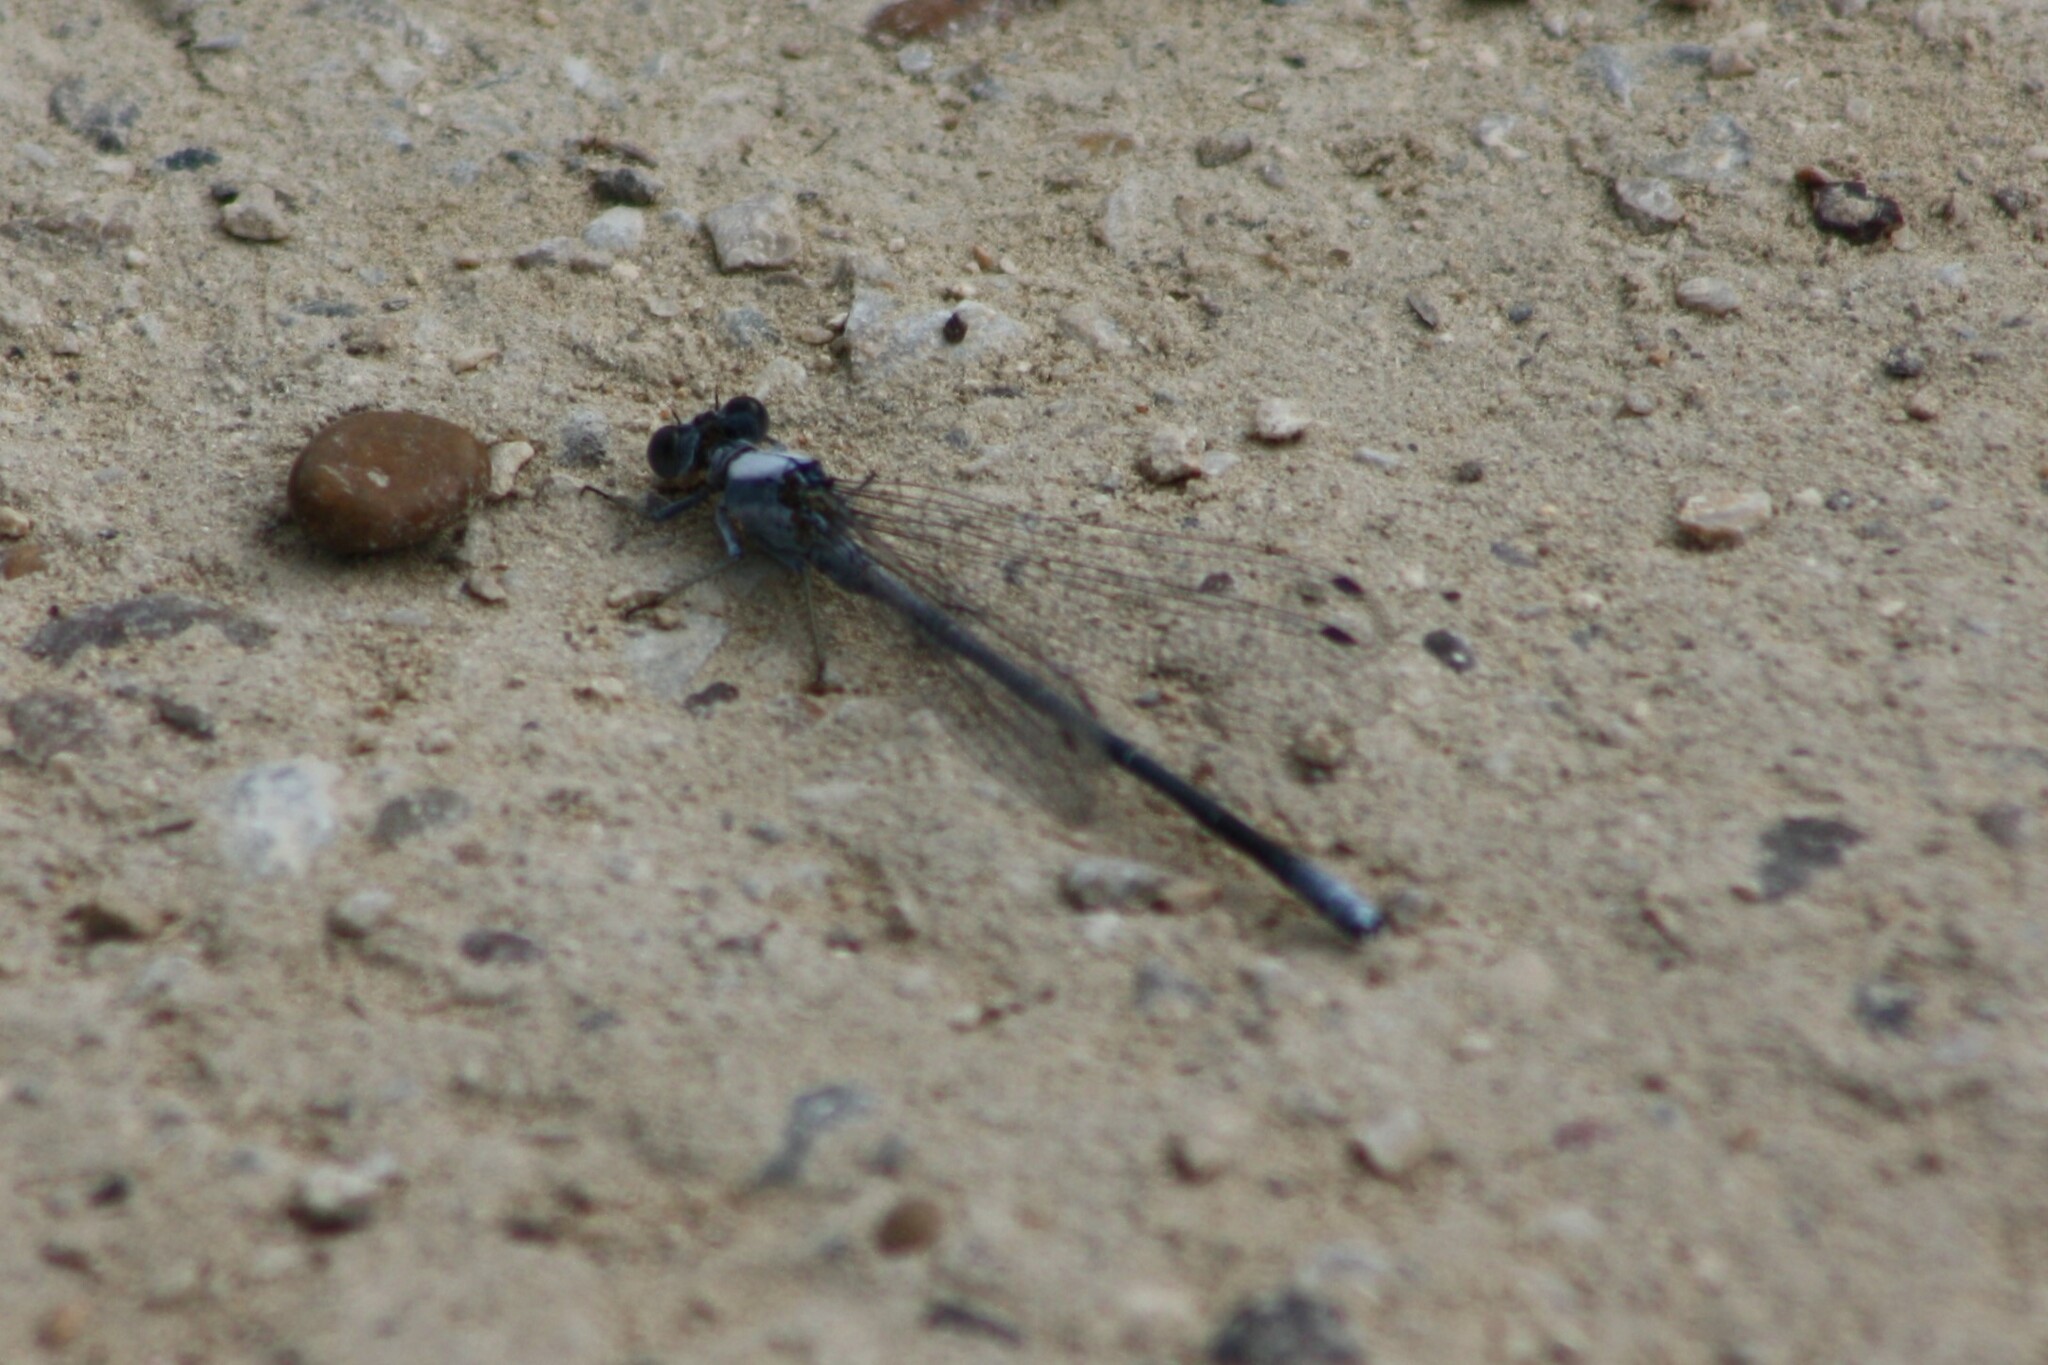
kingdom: Animalia
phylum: Arthropoda
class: Insecta
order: Odonata
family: Coenagrionidae
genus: Argia
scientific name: Argia moesta
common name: Powdered dancer
